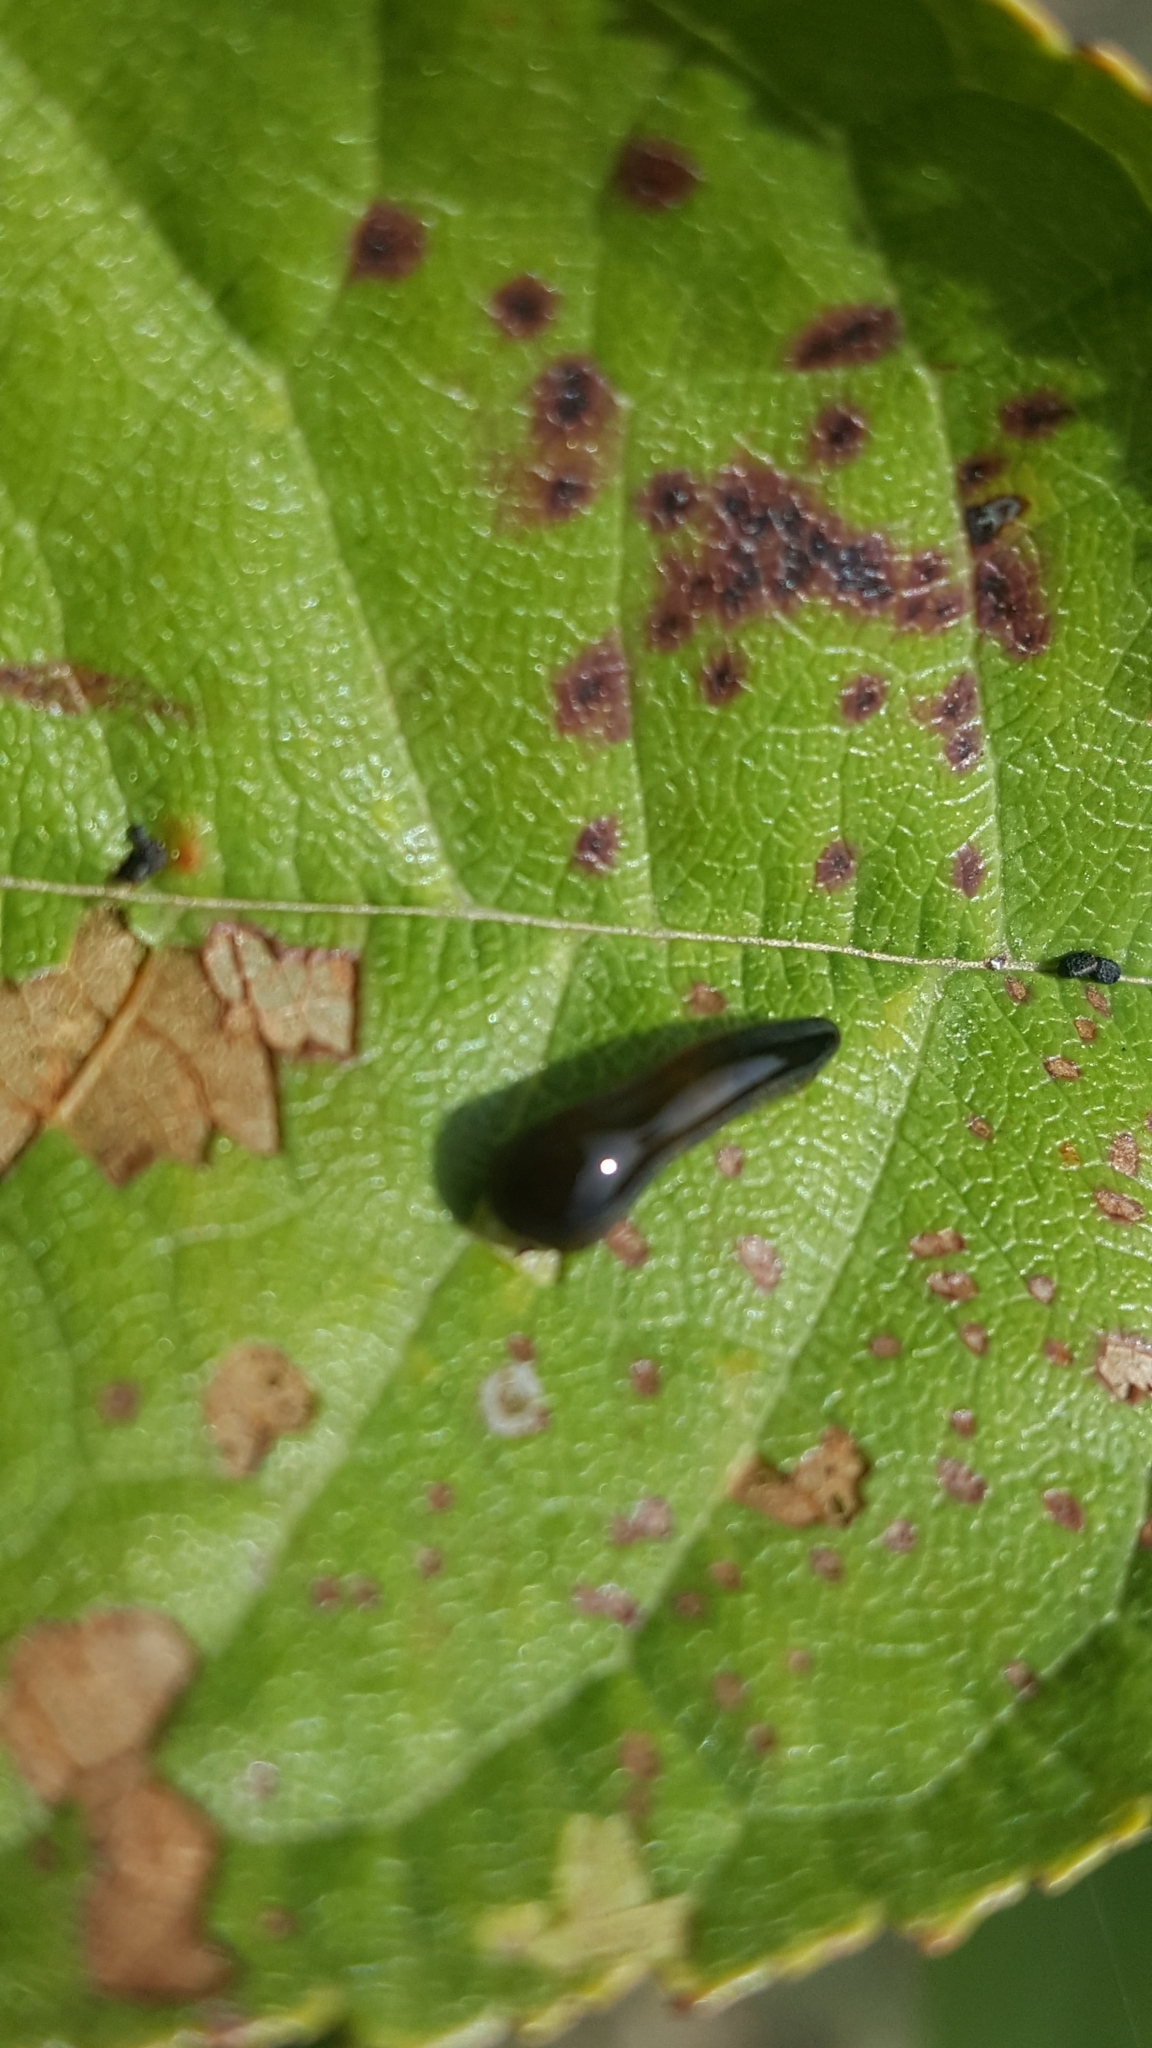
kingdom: Animalia
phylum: Arthropoda
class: Insecta
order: Hymenoptera
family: Tenthredinidae
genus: Caliroa
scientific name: Caliroa cerasi
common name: Pear sawfly
